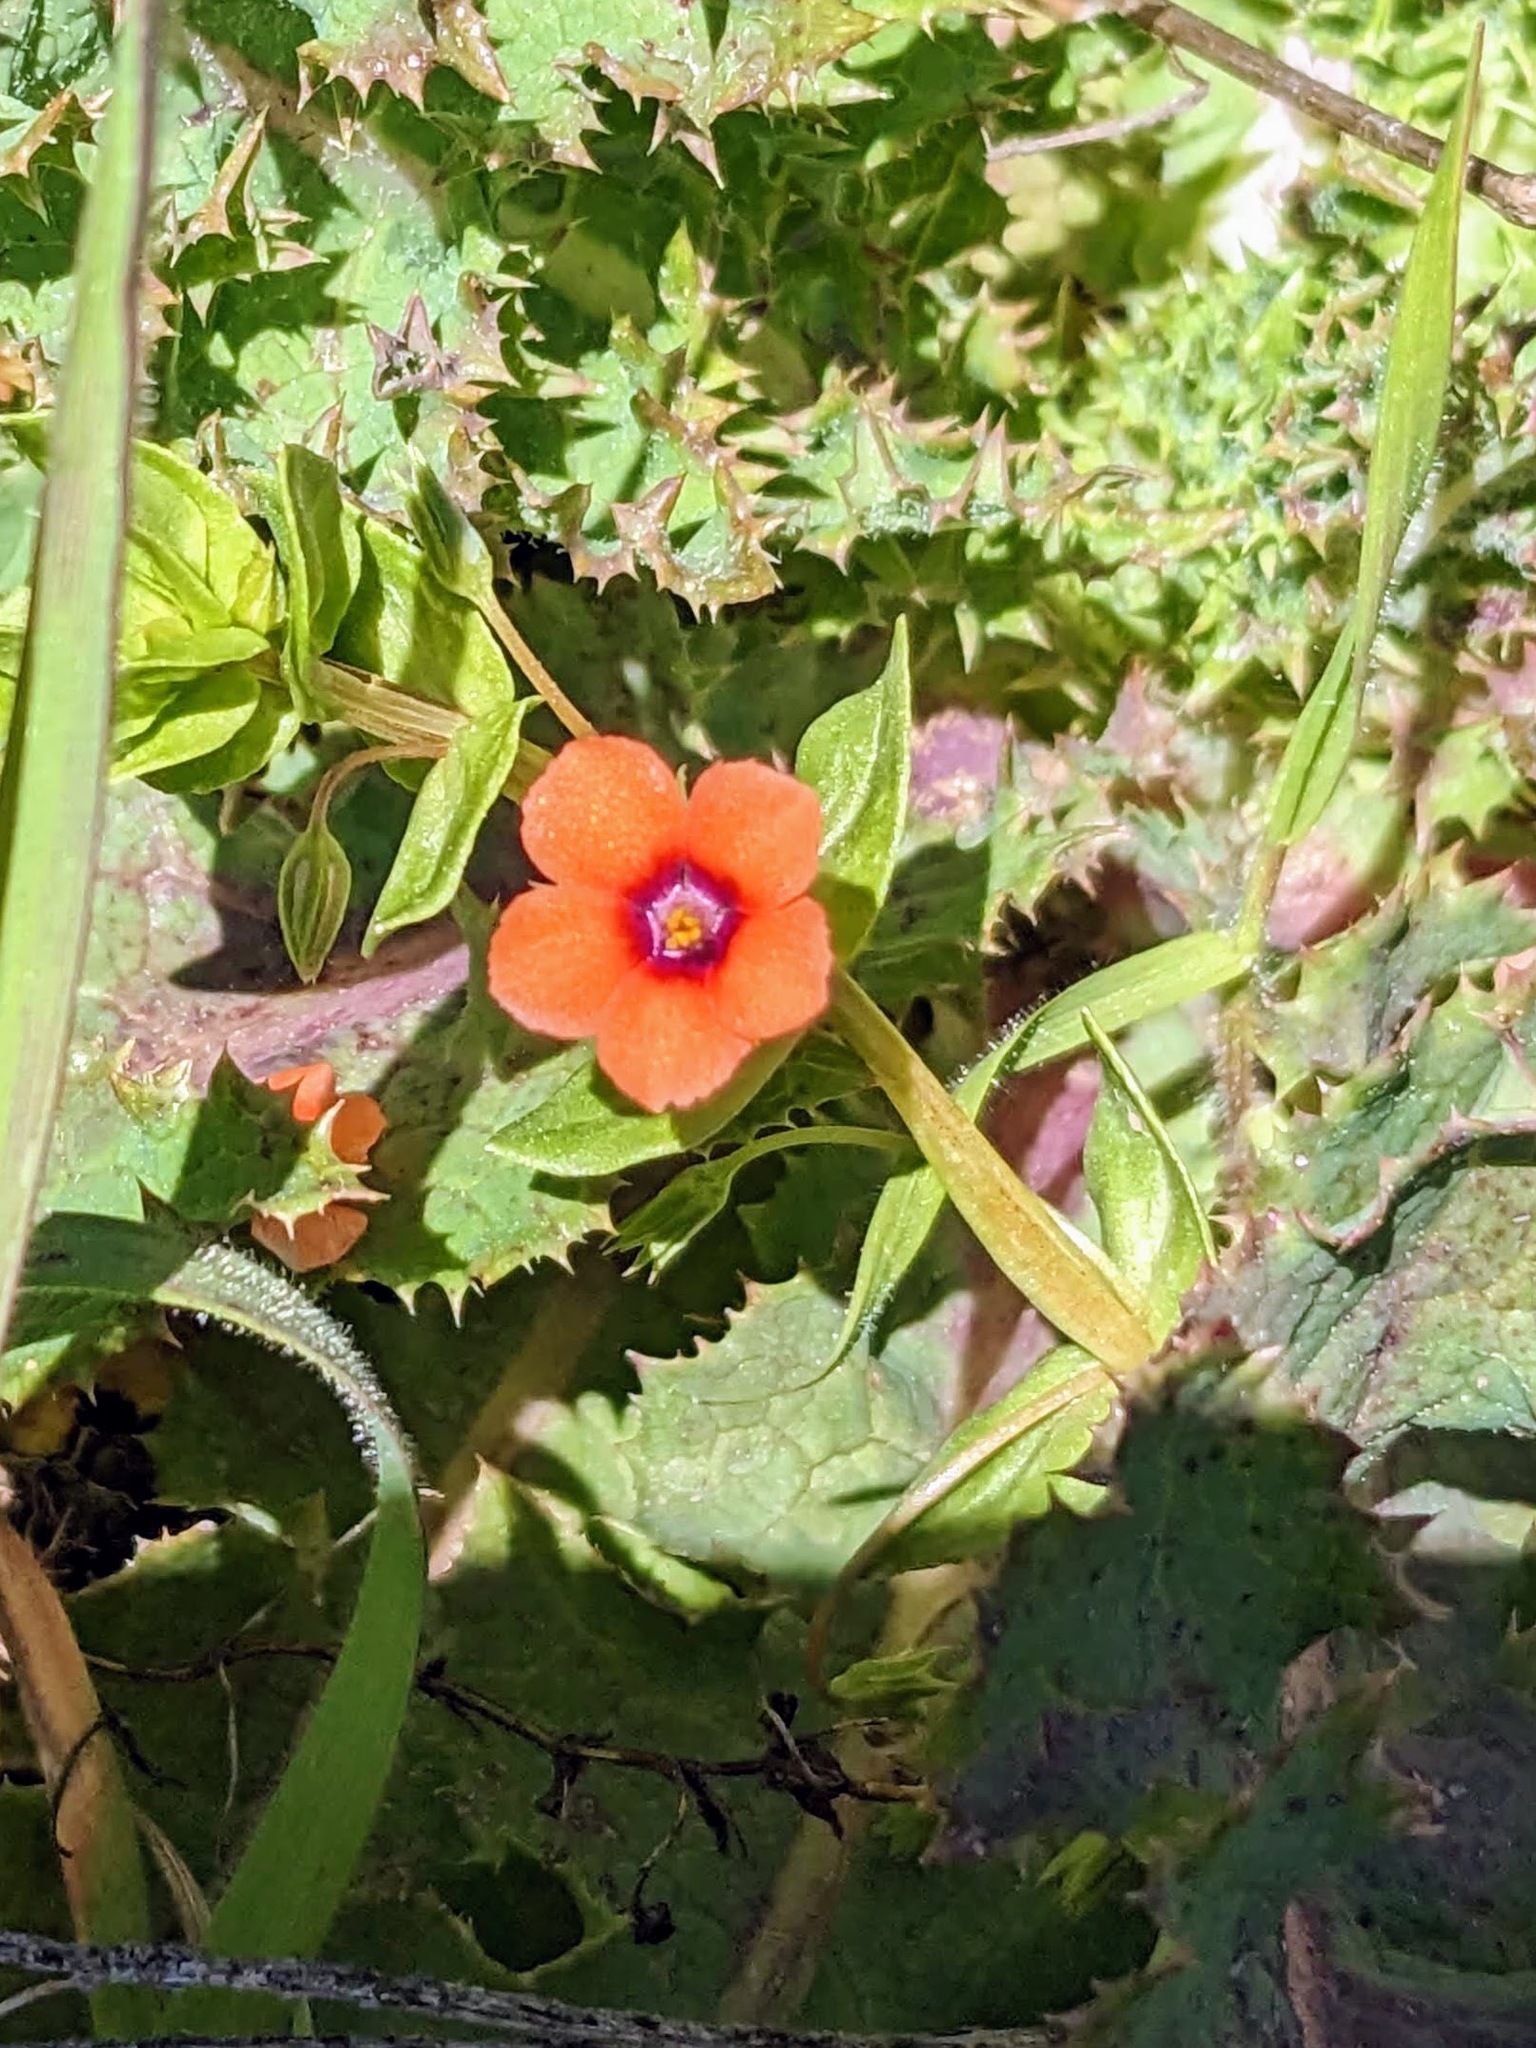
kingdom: Plantae
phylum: Tracheophyta
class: Magnoliopsida
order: Ericales
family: Primulaceae
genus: Lysimachia
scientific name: Lysimachia arvensis
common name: Scarlet pimpernel
